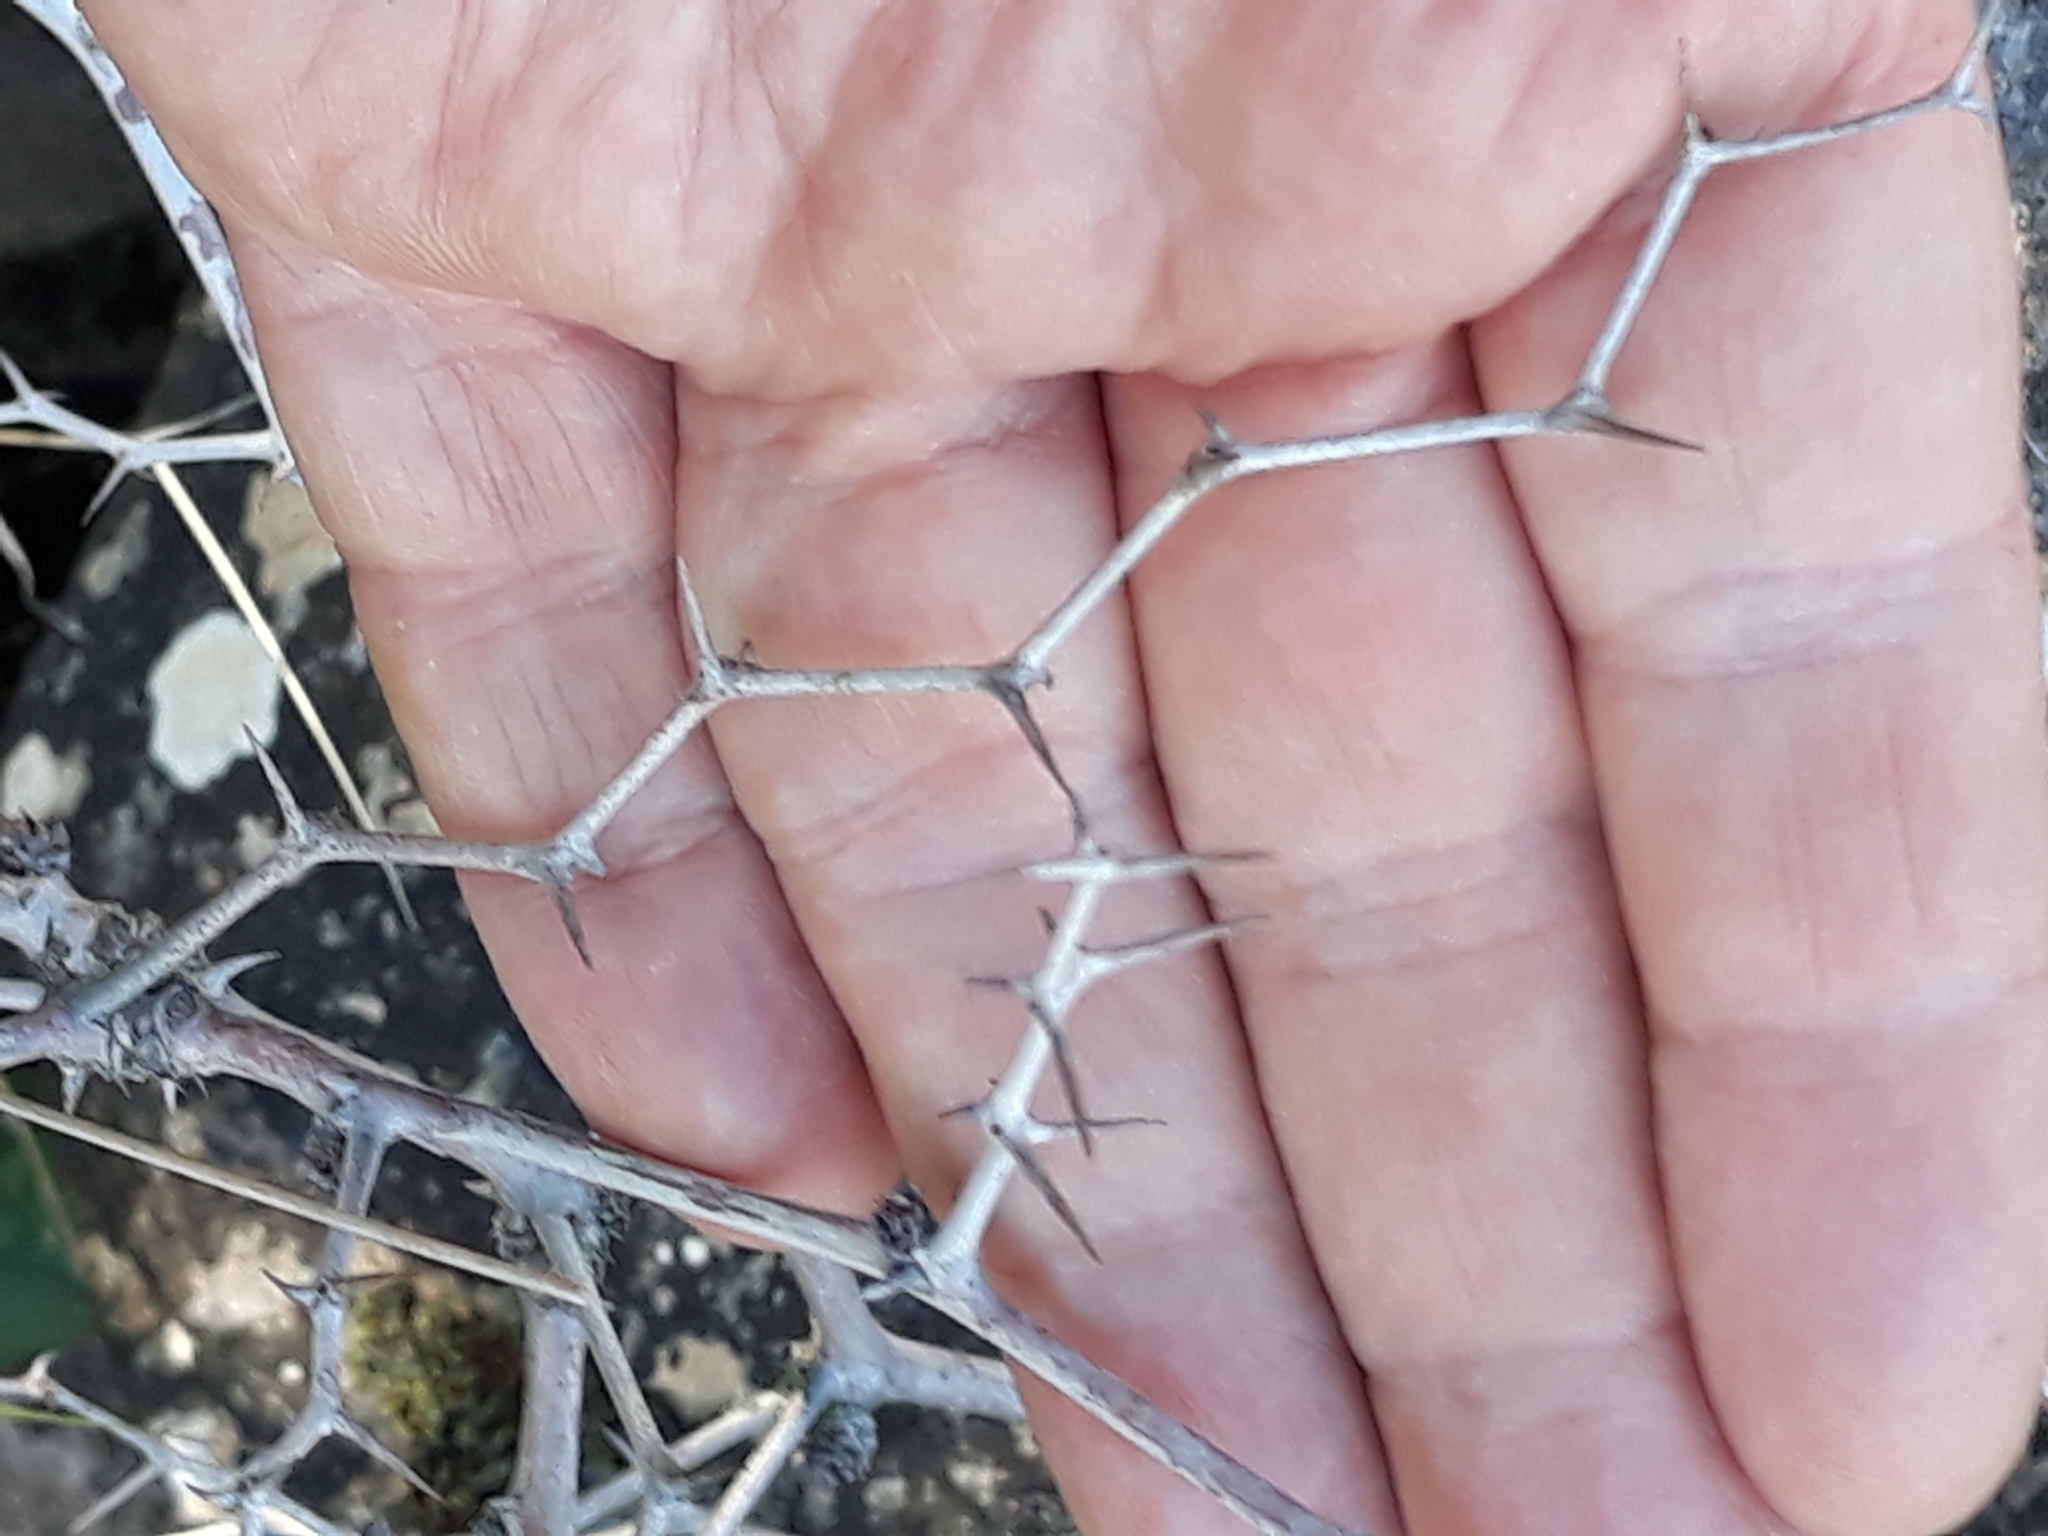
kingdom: Plantae
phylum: Tracheophyta
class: Magnoliopsida
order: Rosales
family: Rhamnaceae
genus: Ziziphus
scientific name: Ziziphus lotus
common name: Lotus
